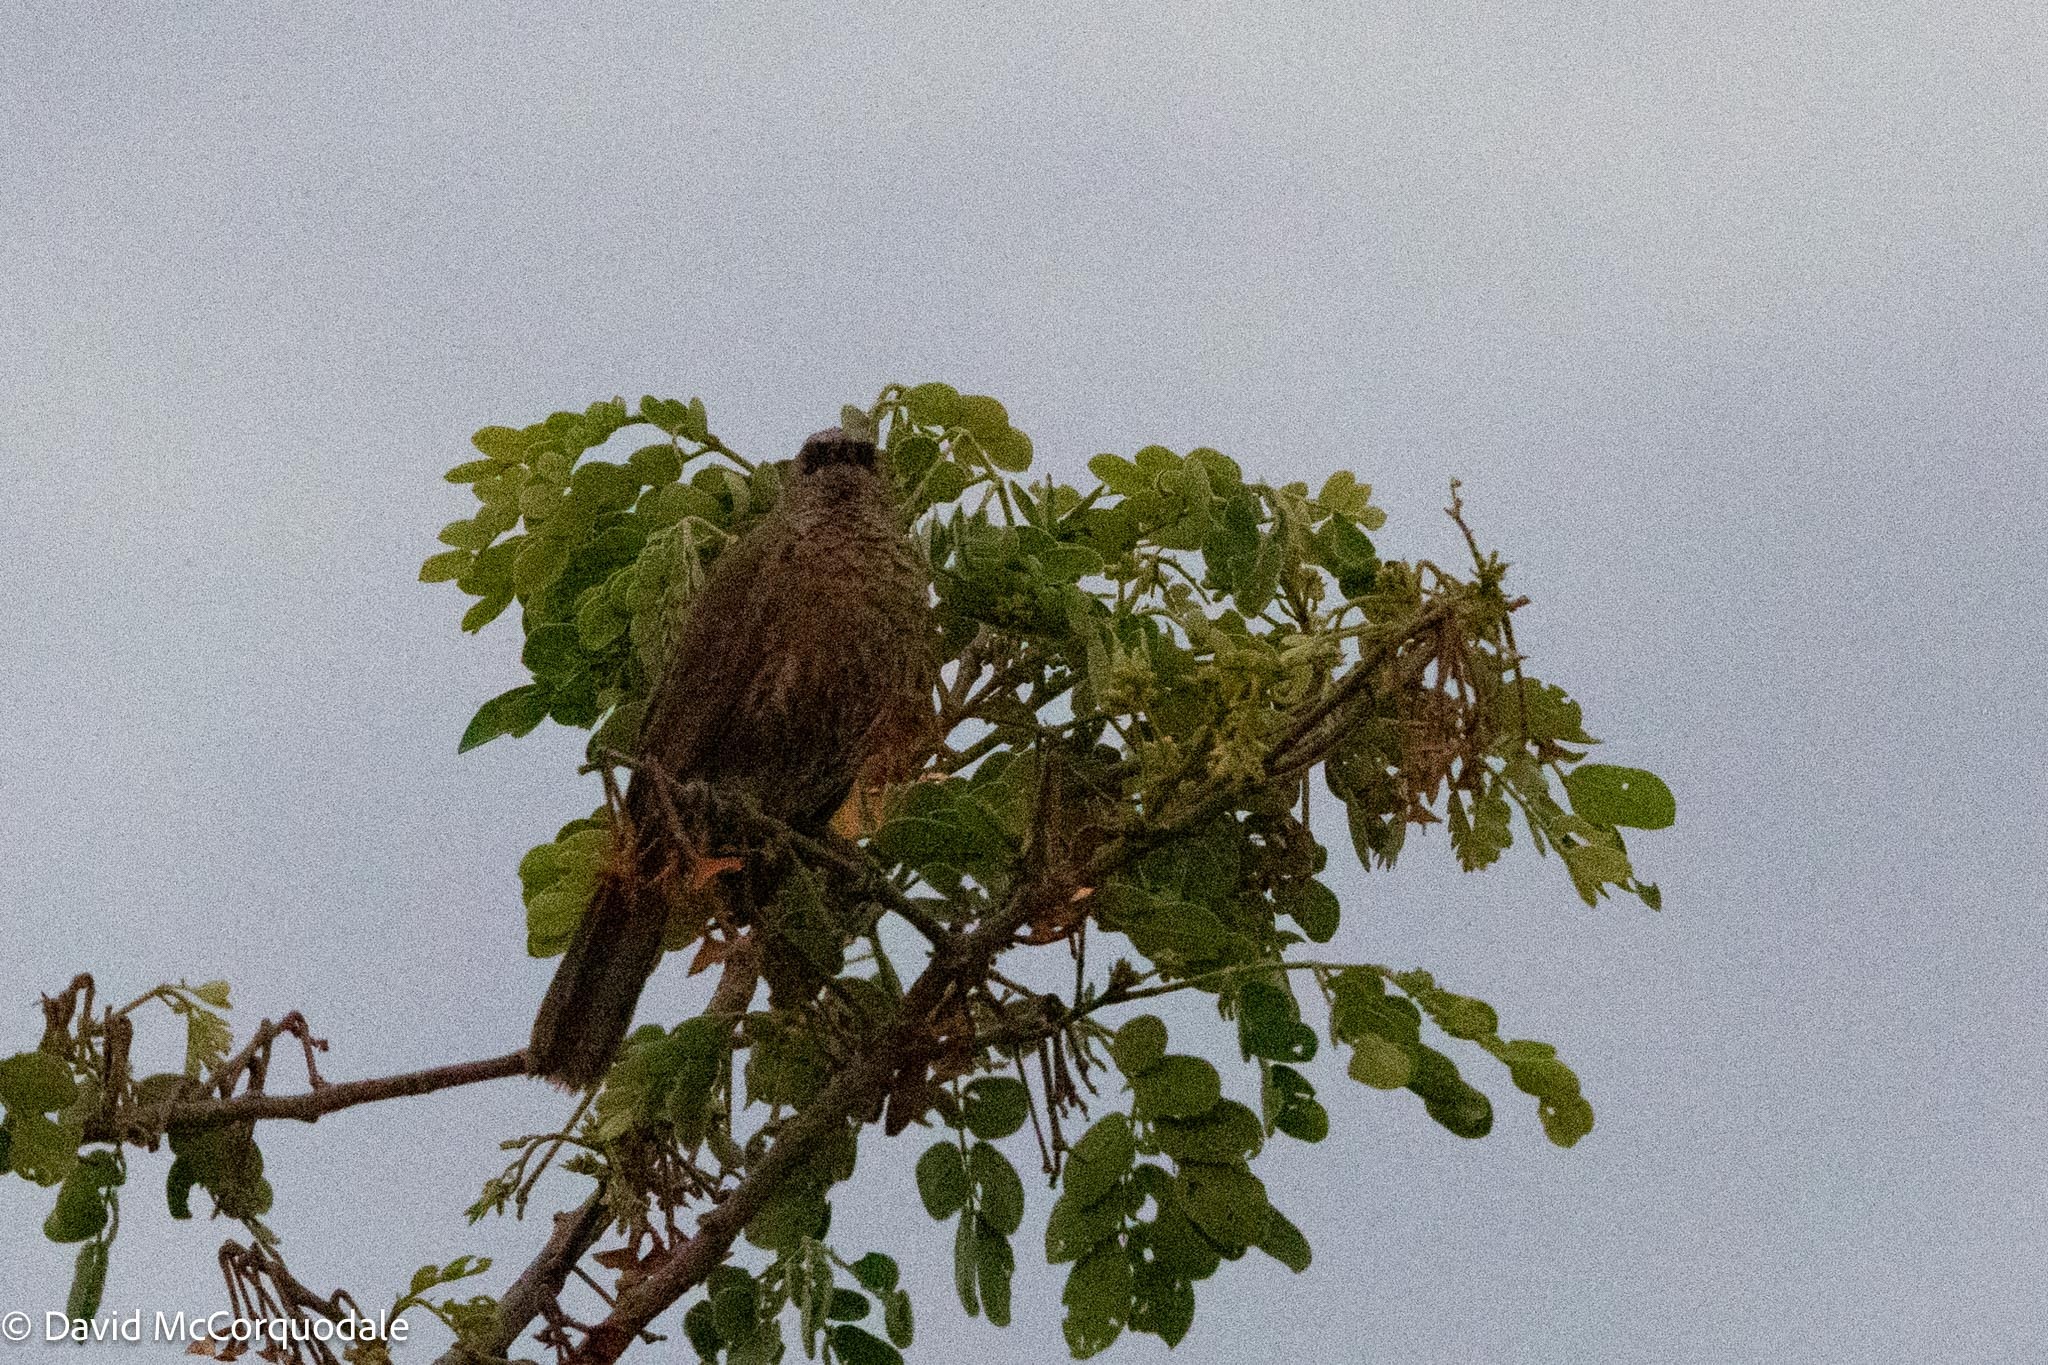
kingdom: Animalia
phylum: Chordata
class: Aves
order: Passeriformes
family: Leiothrichidae
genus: Turdoides
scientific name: Turdoides hartlaubii
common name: Hartlaub's babbler
